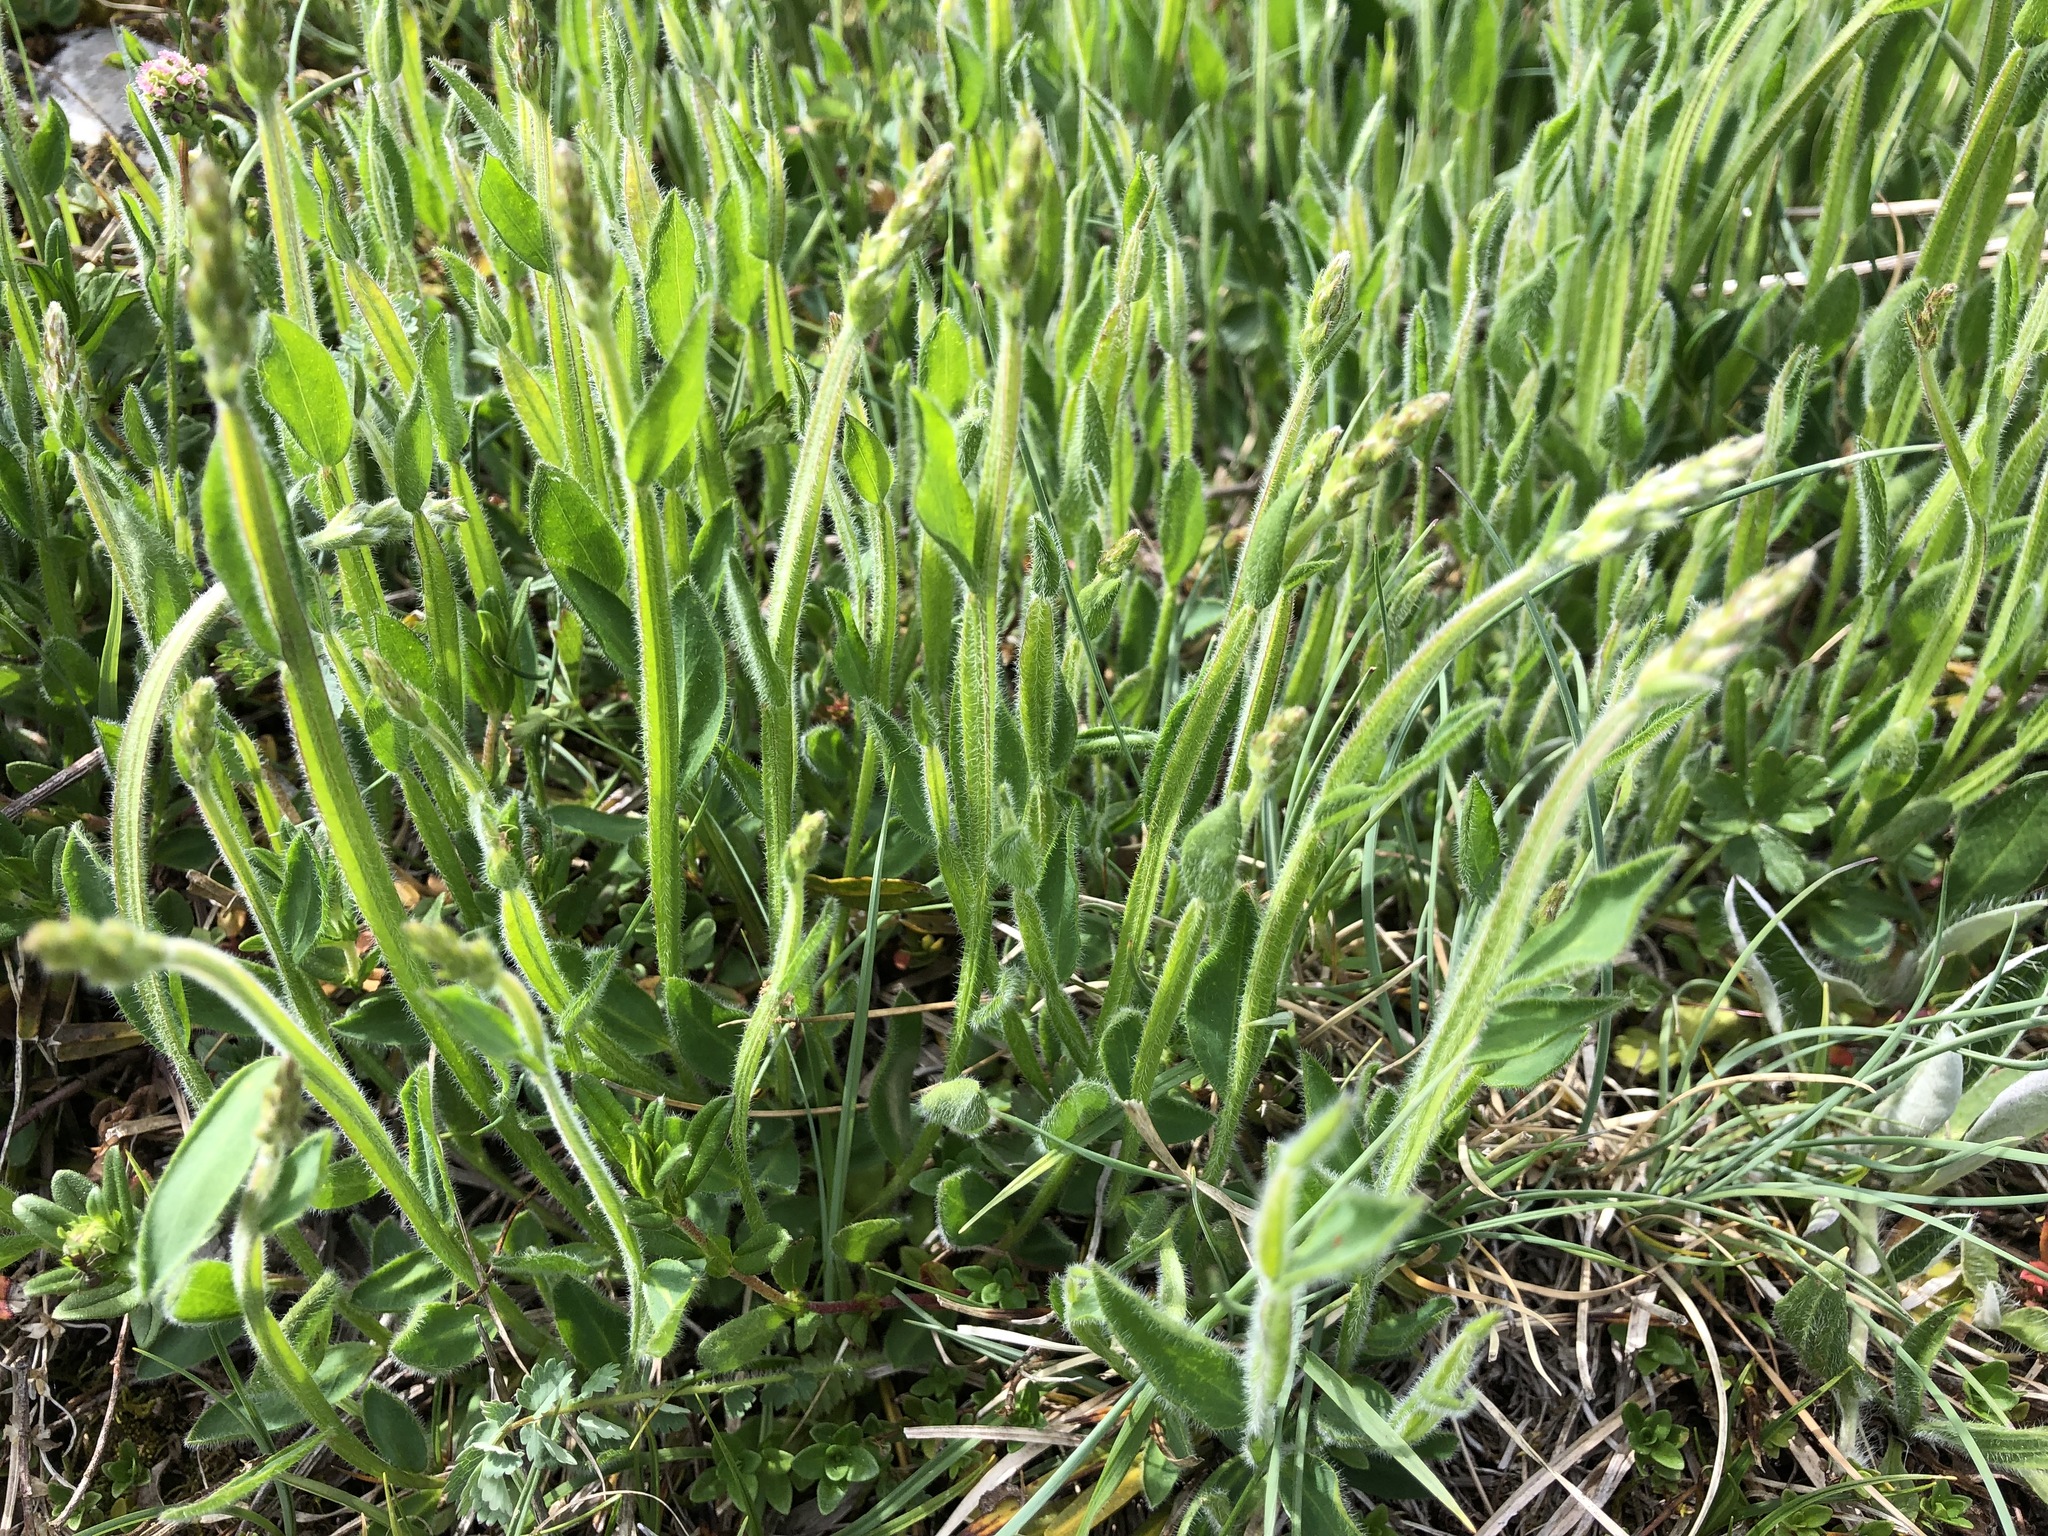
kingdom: Plantae
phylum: Tracheophyta
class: Magnoliopsida
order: Fabales
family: Fabaceae
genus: Genista
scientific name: Genista sagittalis
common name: Winged greenweed
